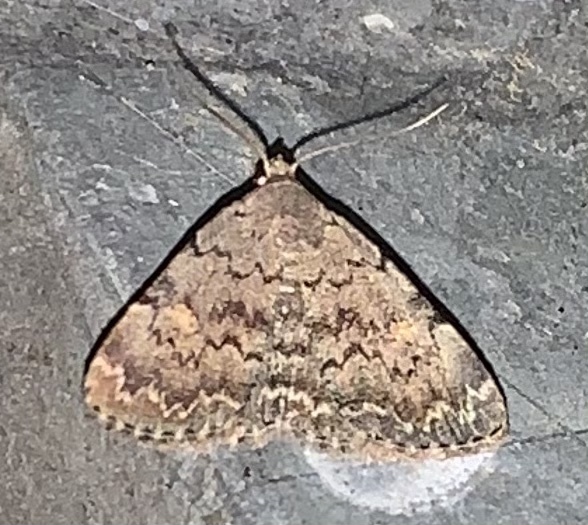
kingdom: Animalia
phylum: Arthropoda
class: Insecta
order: Lepidoptera
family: Erebidae
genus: Idia
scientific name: Idia aemula
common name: Common idia moth
